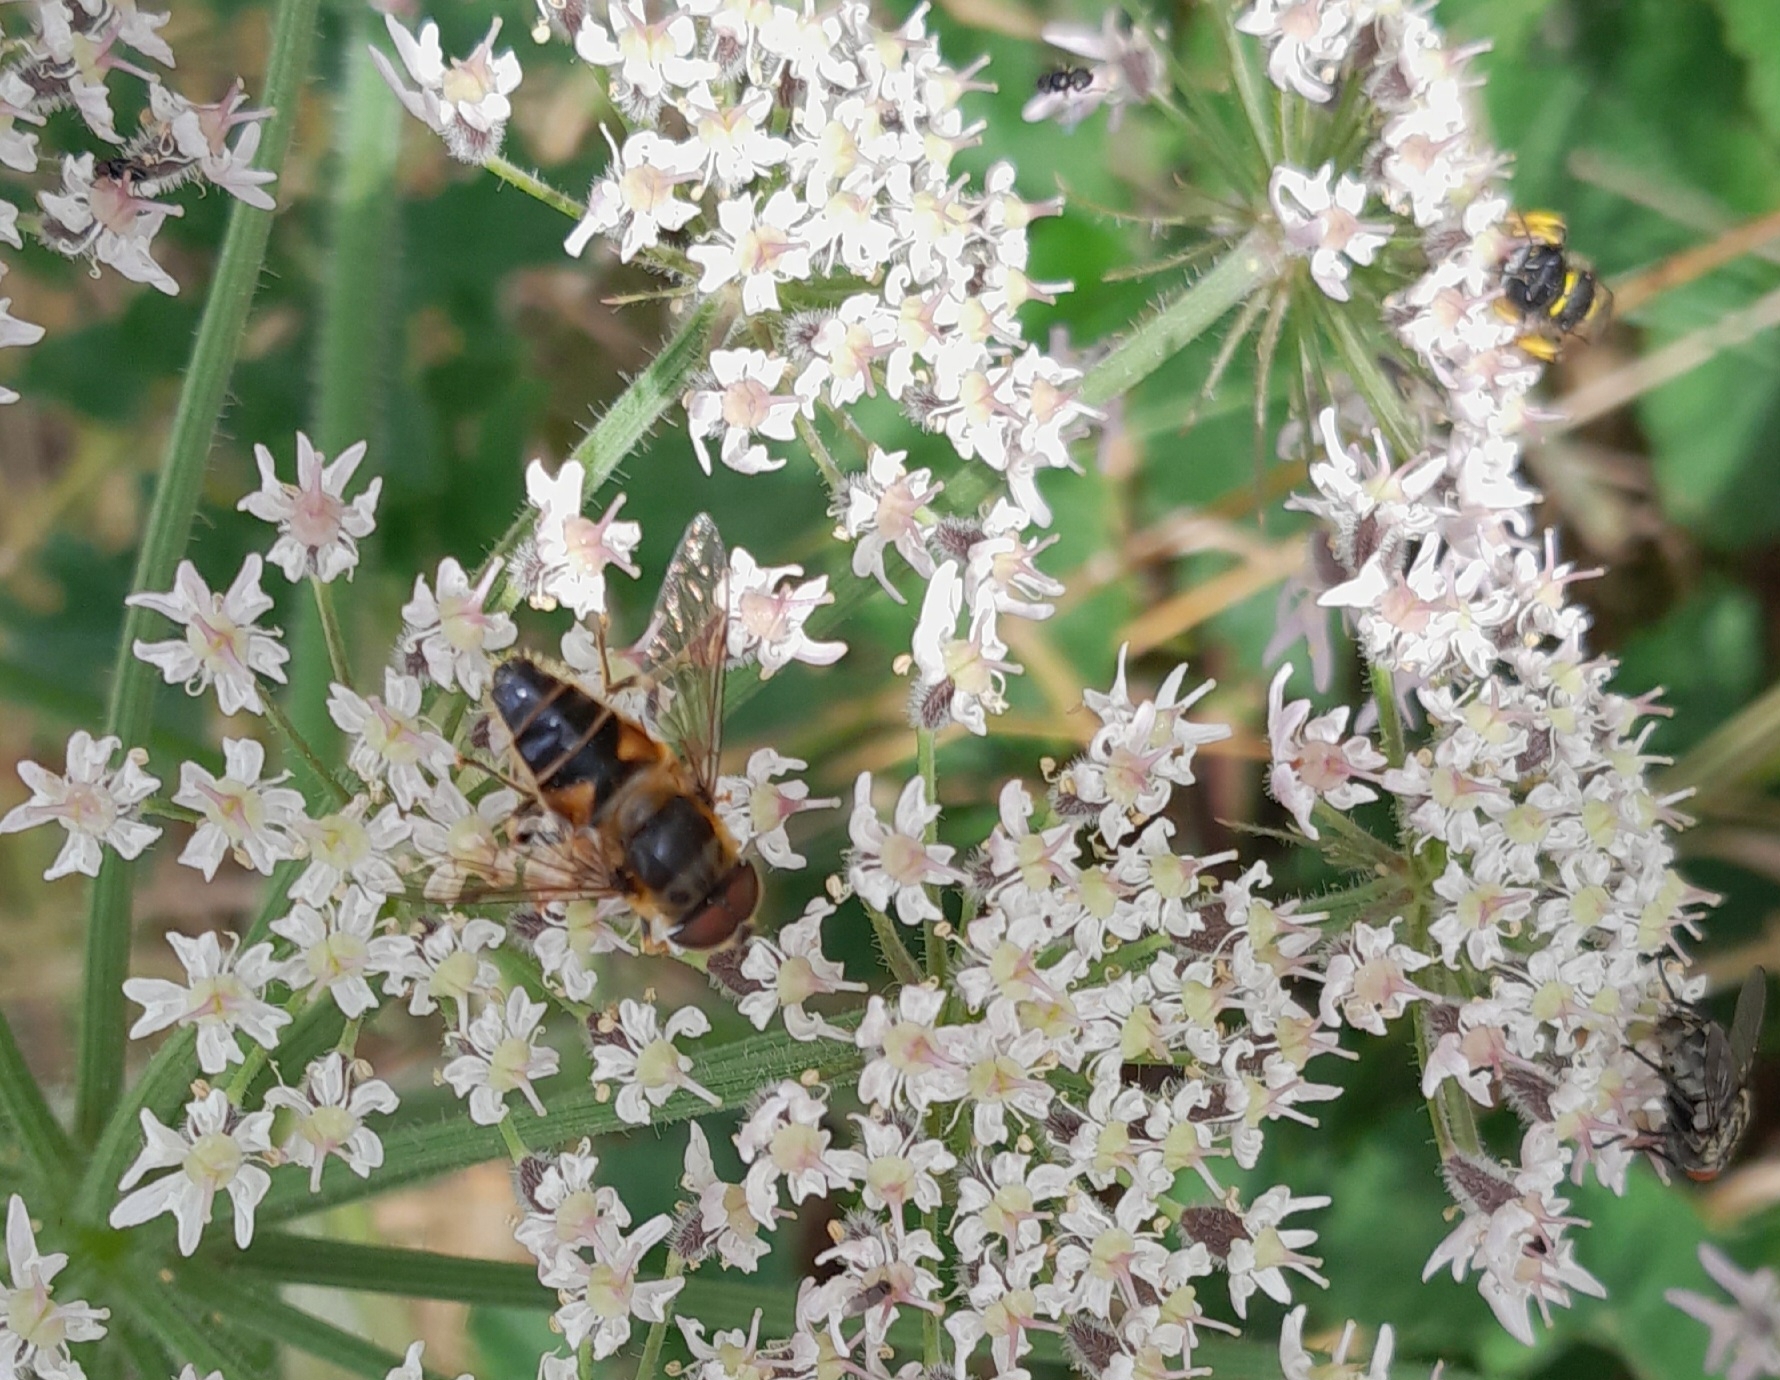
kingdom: Animalia
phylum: Arthropoda
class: Insecta
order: Diptera
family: Syrphidae
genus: Eristalis
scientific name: Eristalis pertinax
